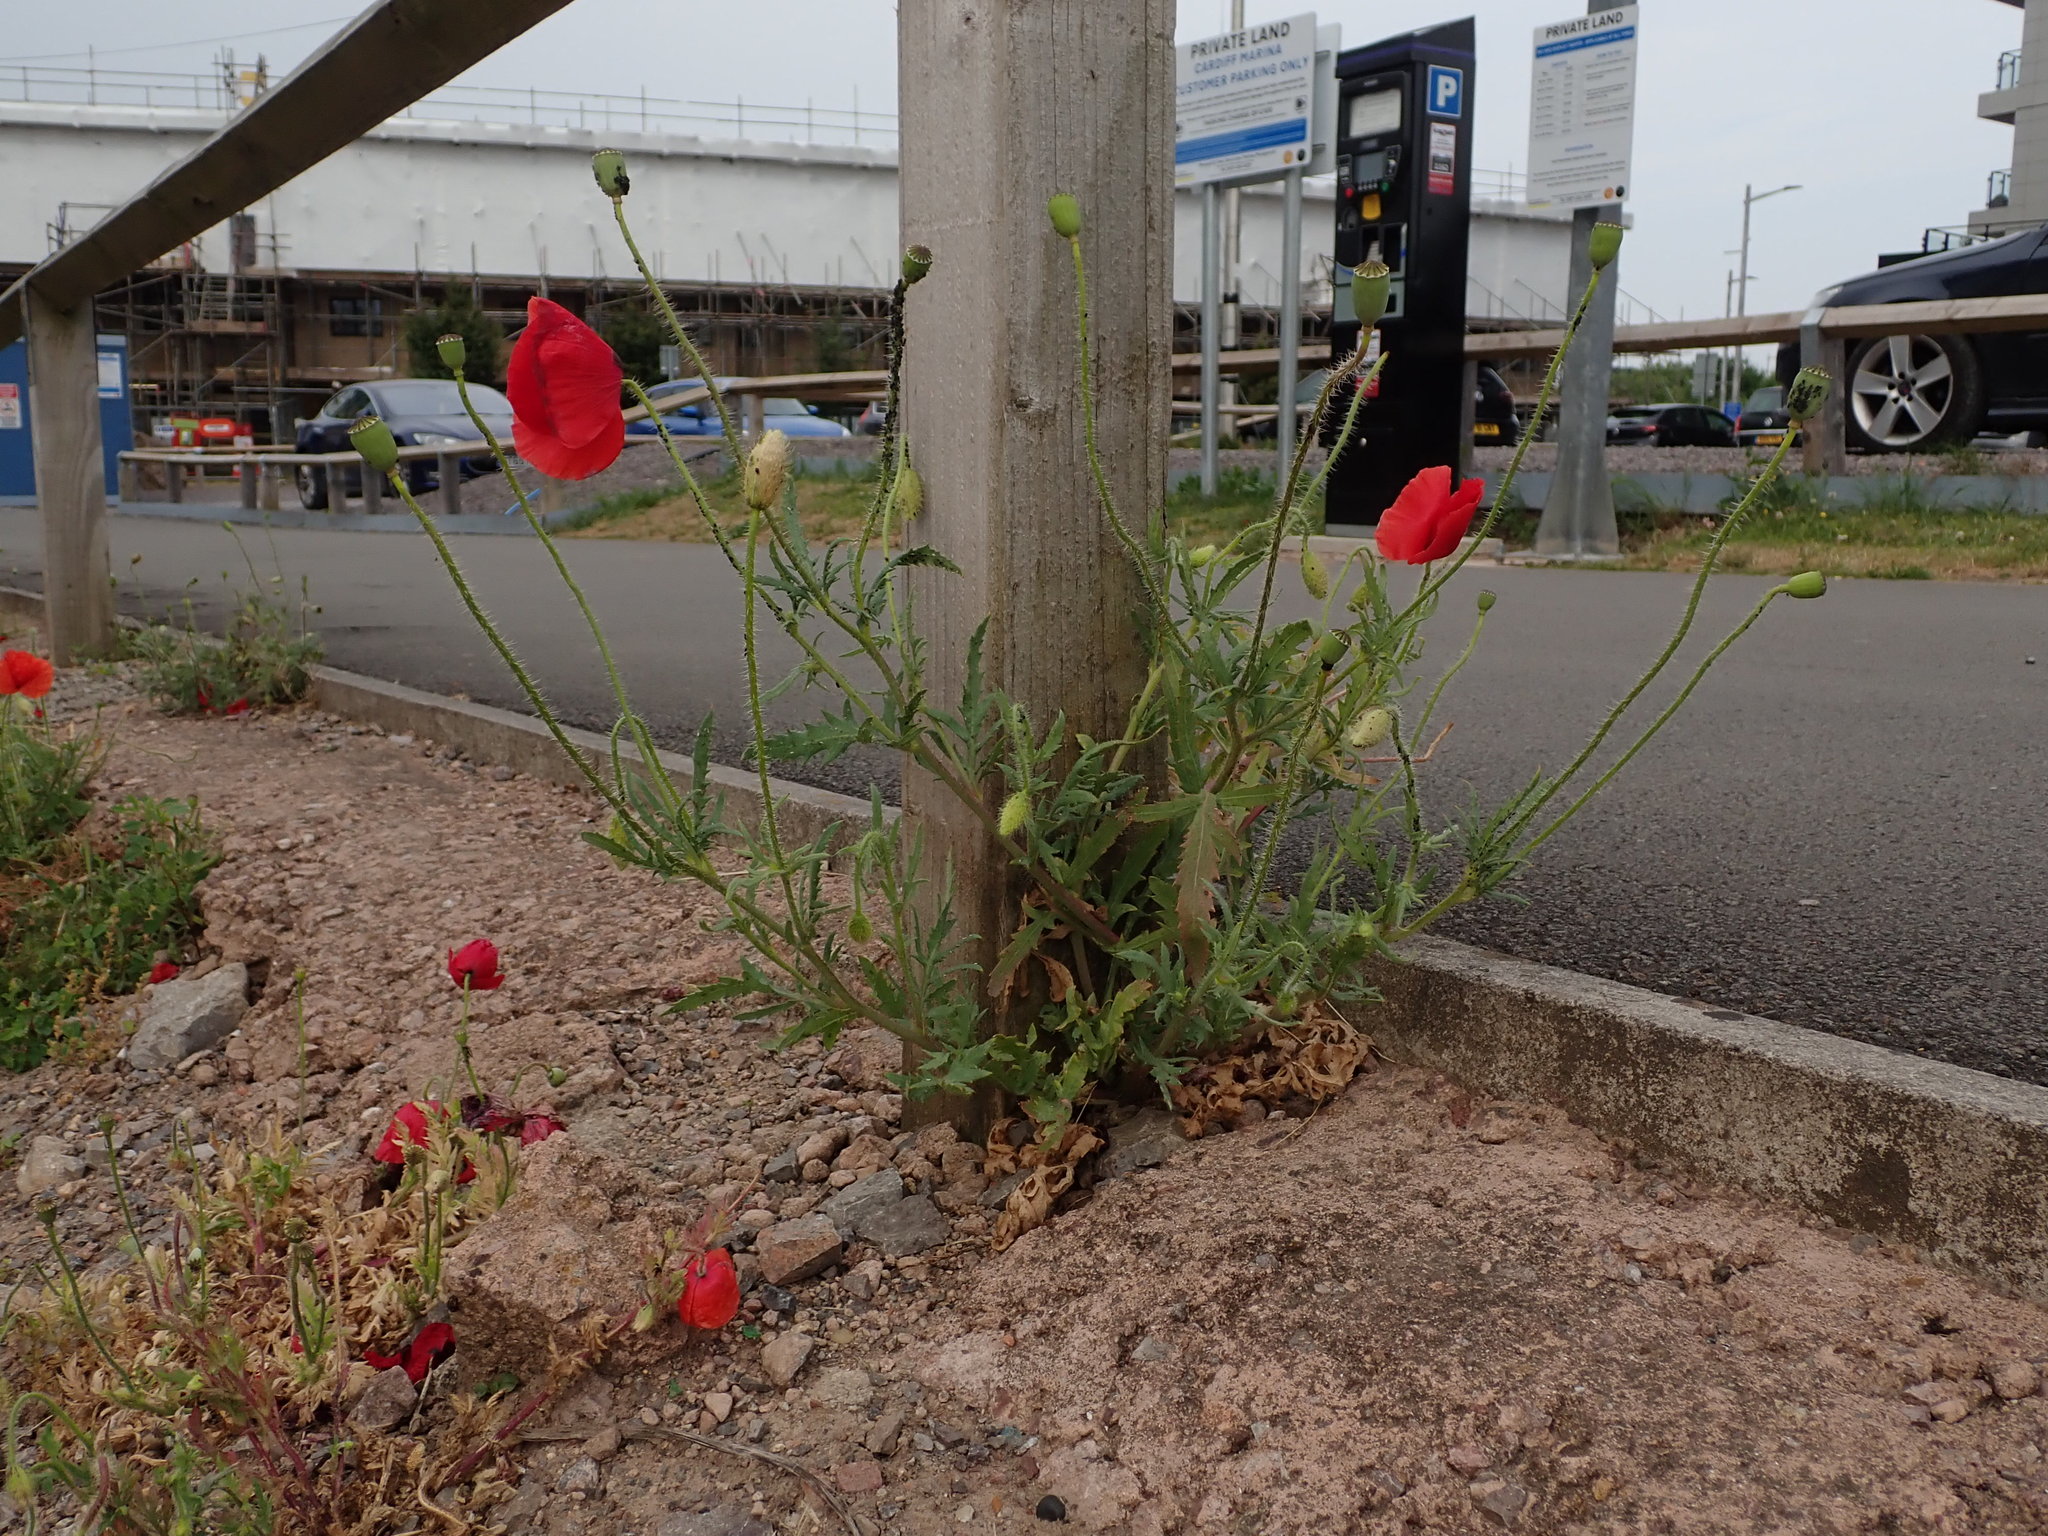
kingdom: Plantae
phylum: Tracheophyta
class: Magnoliopsida
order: Ranunculales
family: Papaveraceae
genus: Papaver
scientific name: Papaver rhoeas
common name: Corn poppy
